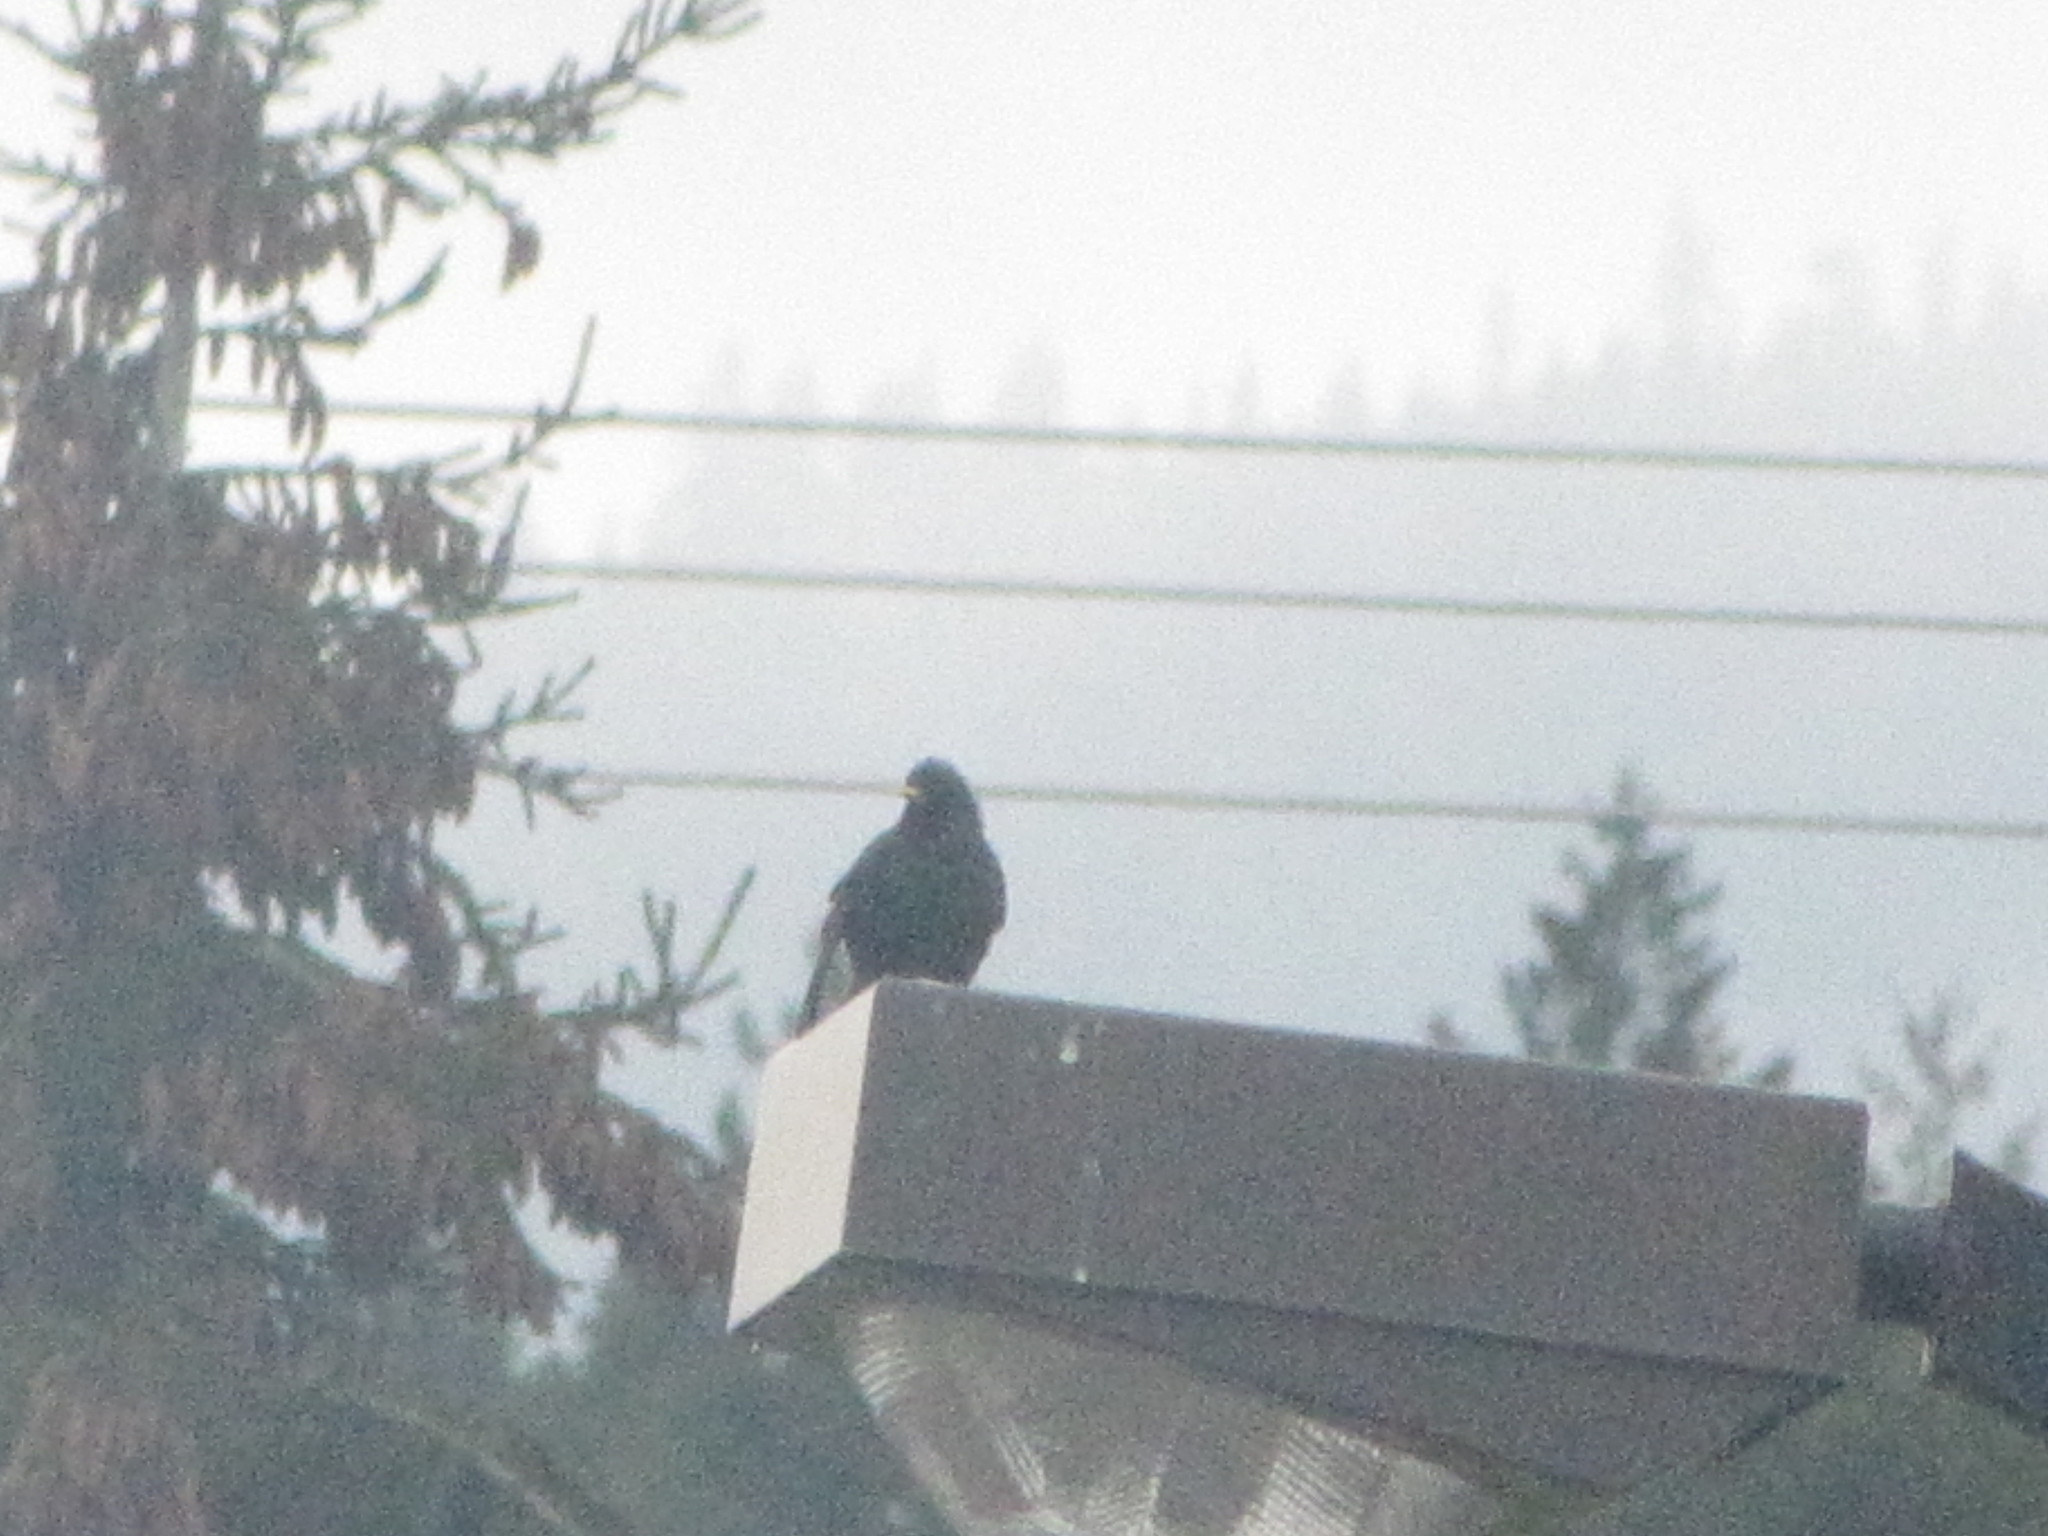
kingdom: Animalia
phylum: Chordata
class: Aves
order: Passeriformes
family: Sturnidae
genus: Sturnus
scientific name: Sturnus vulgaris
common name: Common starling
